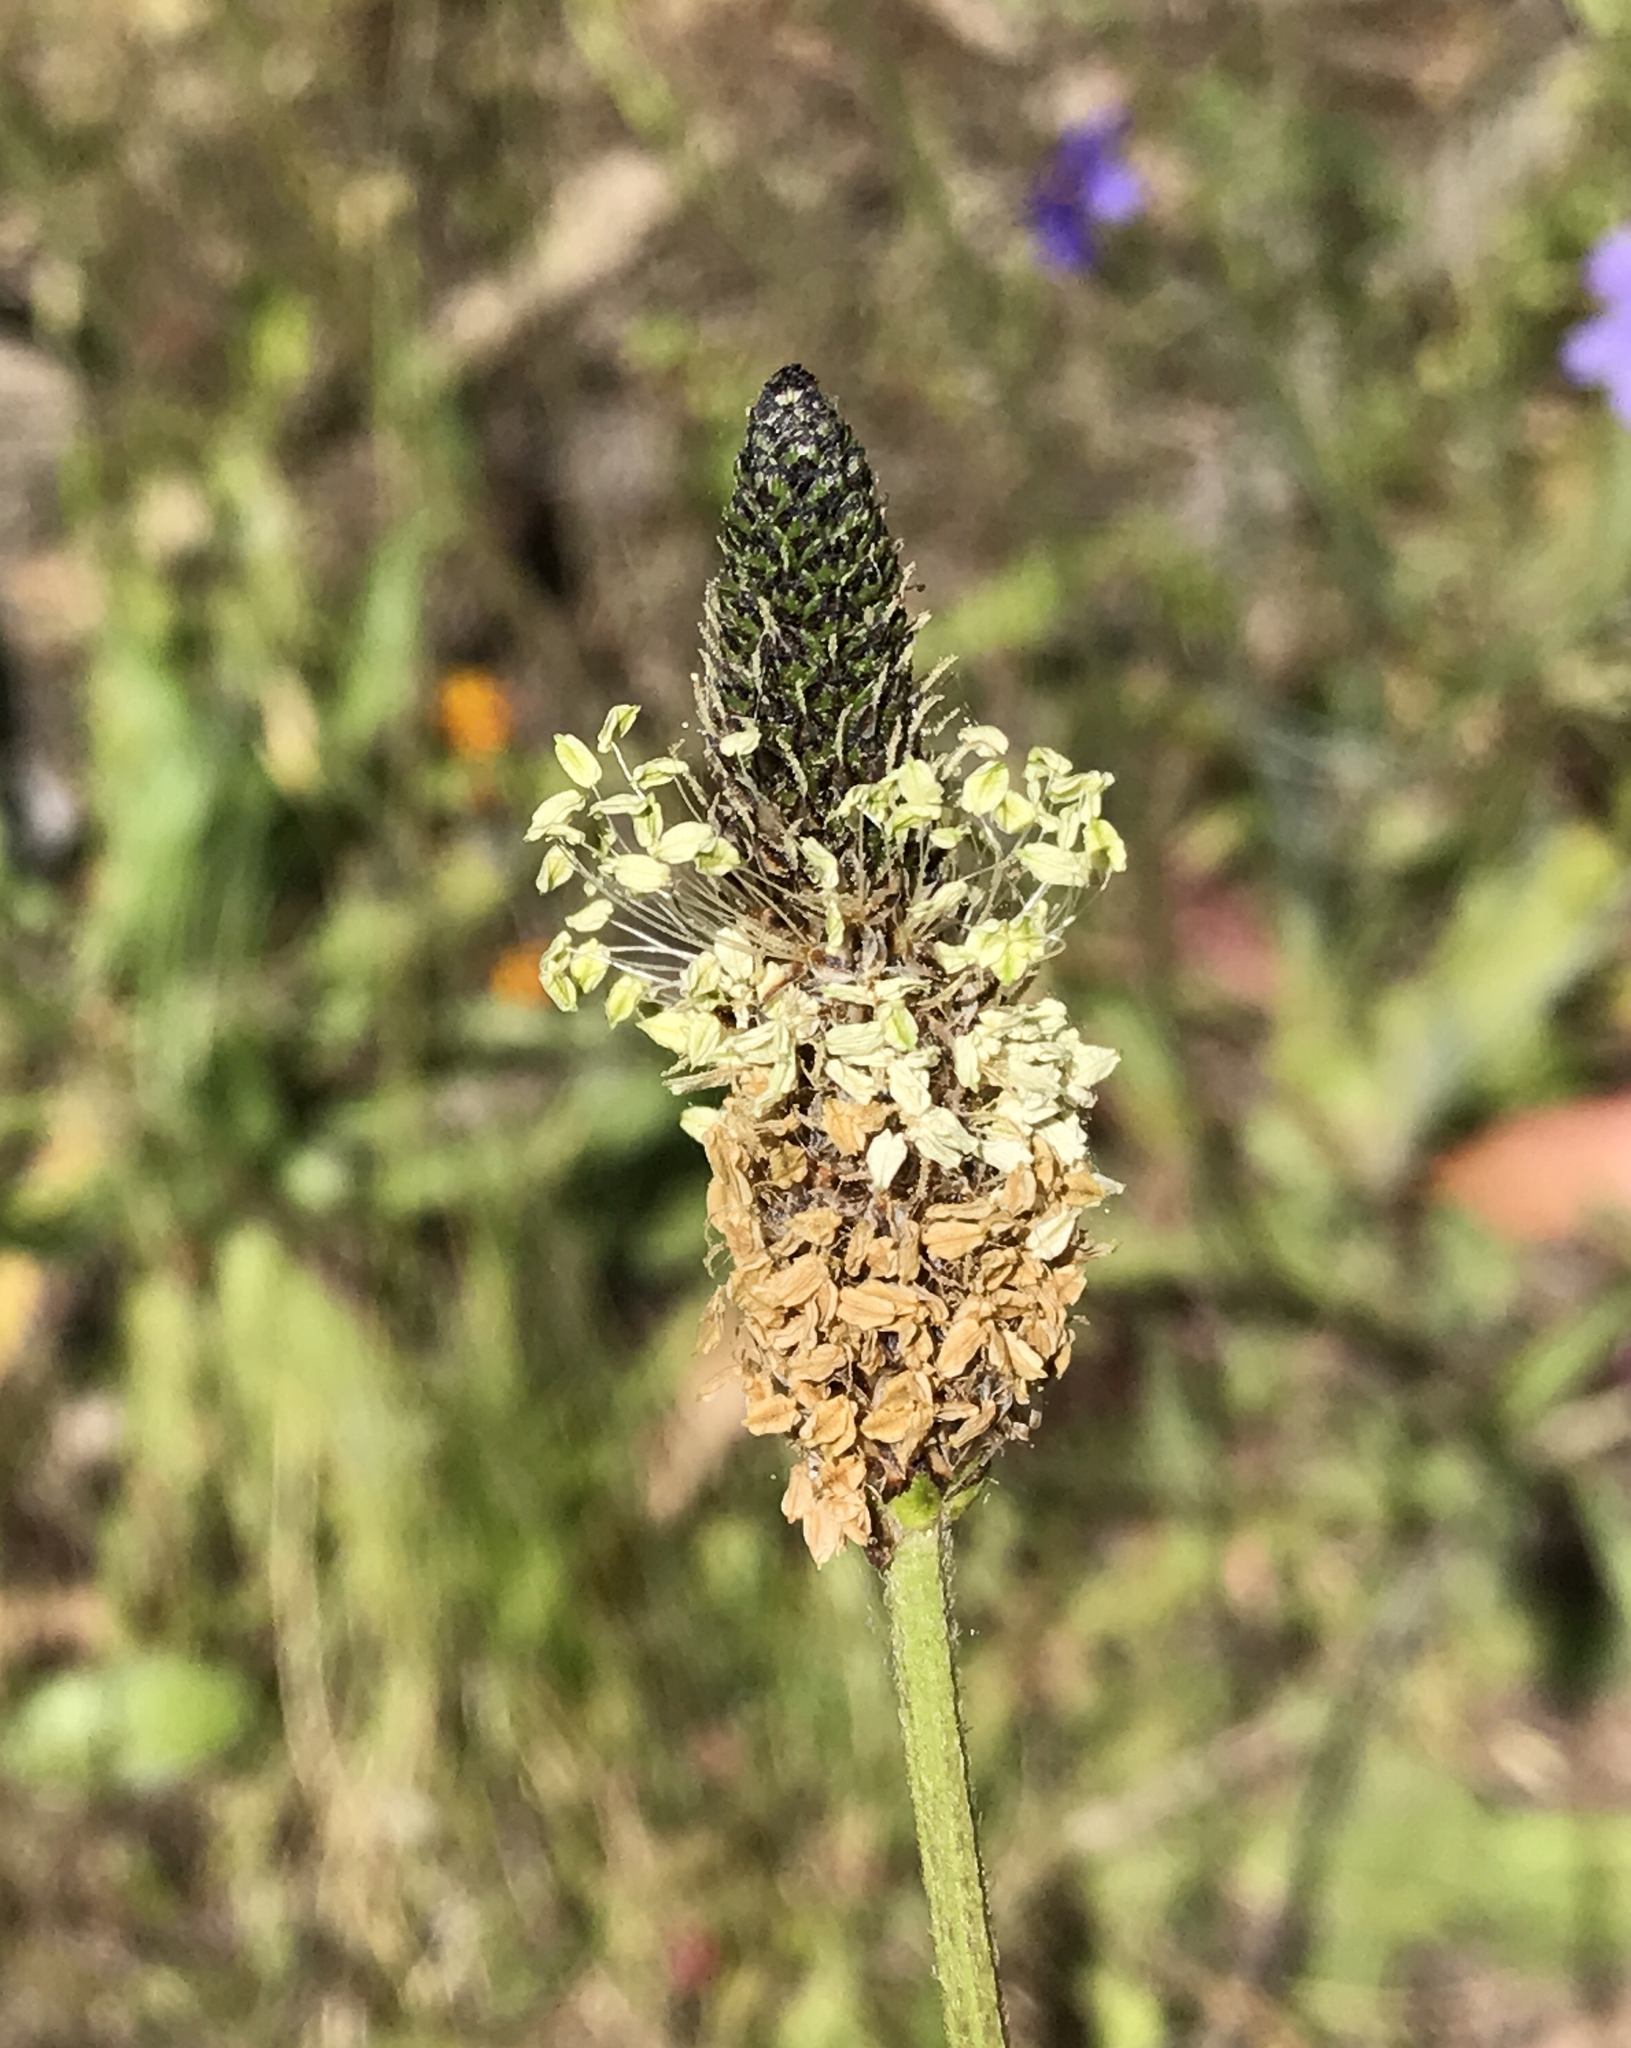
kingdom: Plantae
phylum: Tracheophyta
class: Magnoliopsida
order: Lamiales
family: Plantaginaceae
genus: Plantago
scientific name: Plantago lanceolata
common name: Ribwort plantain
